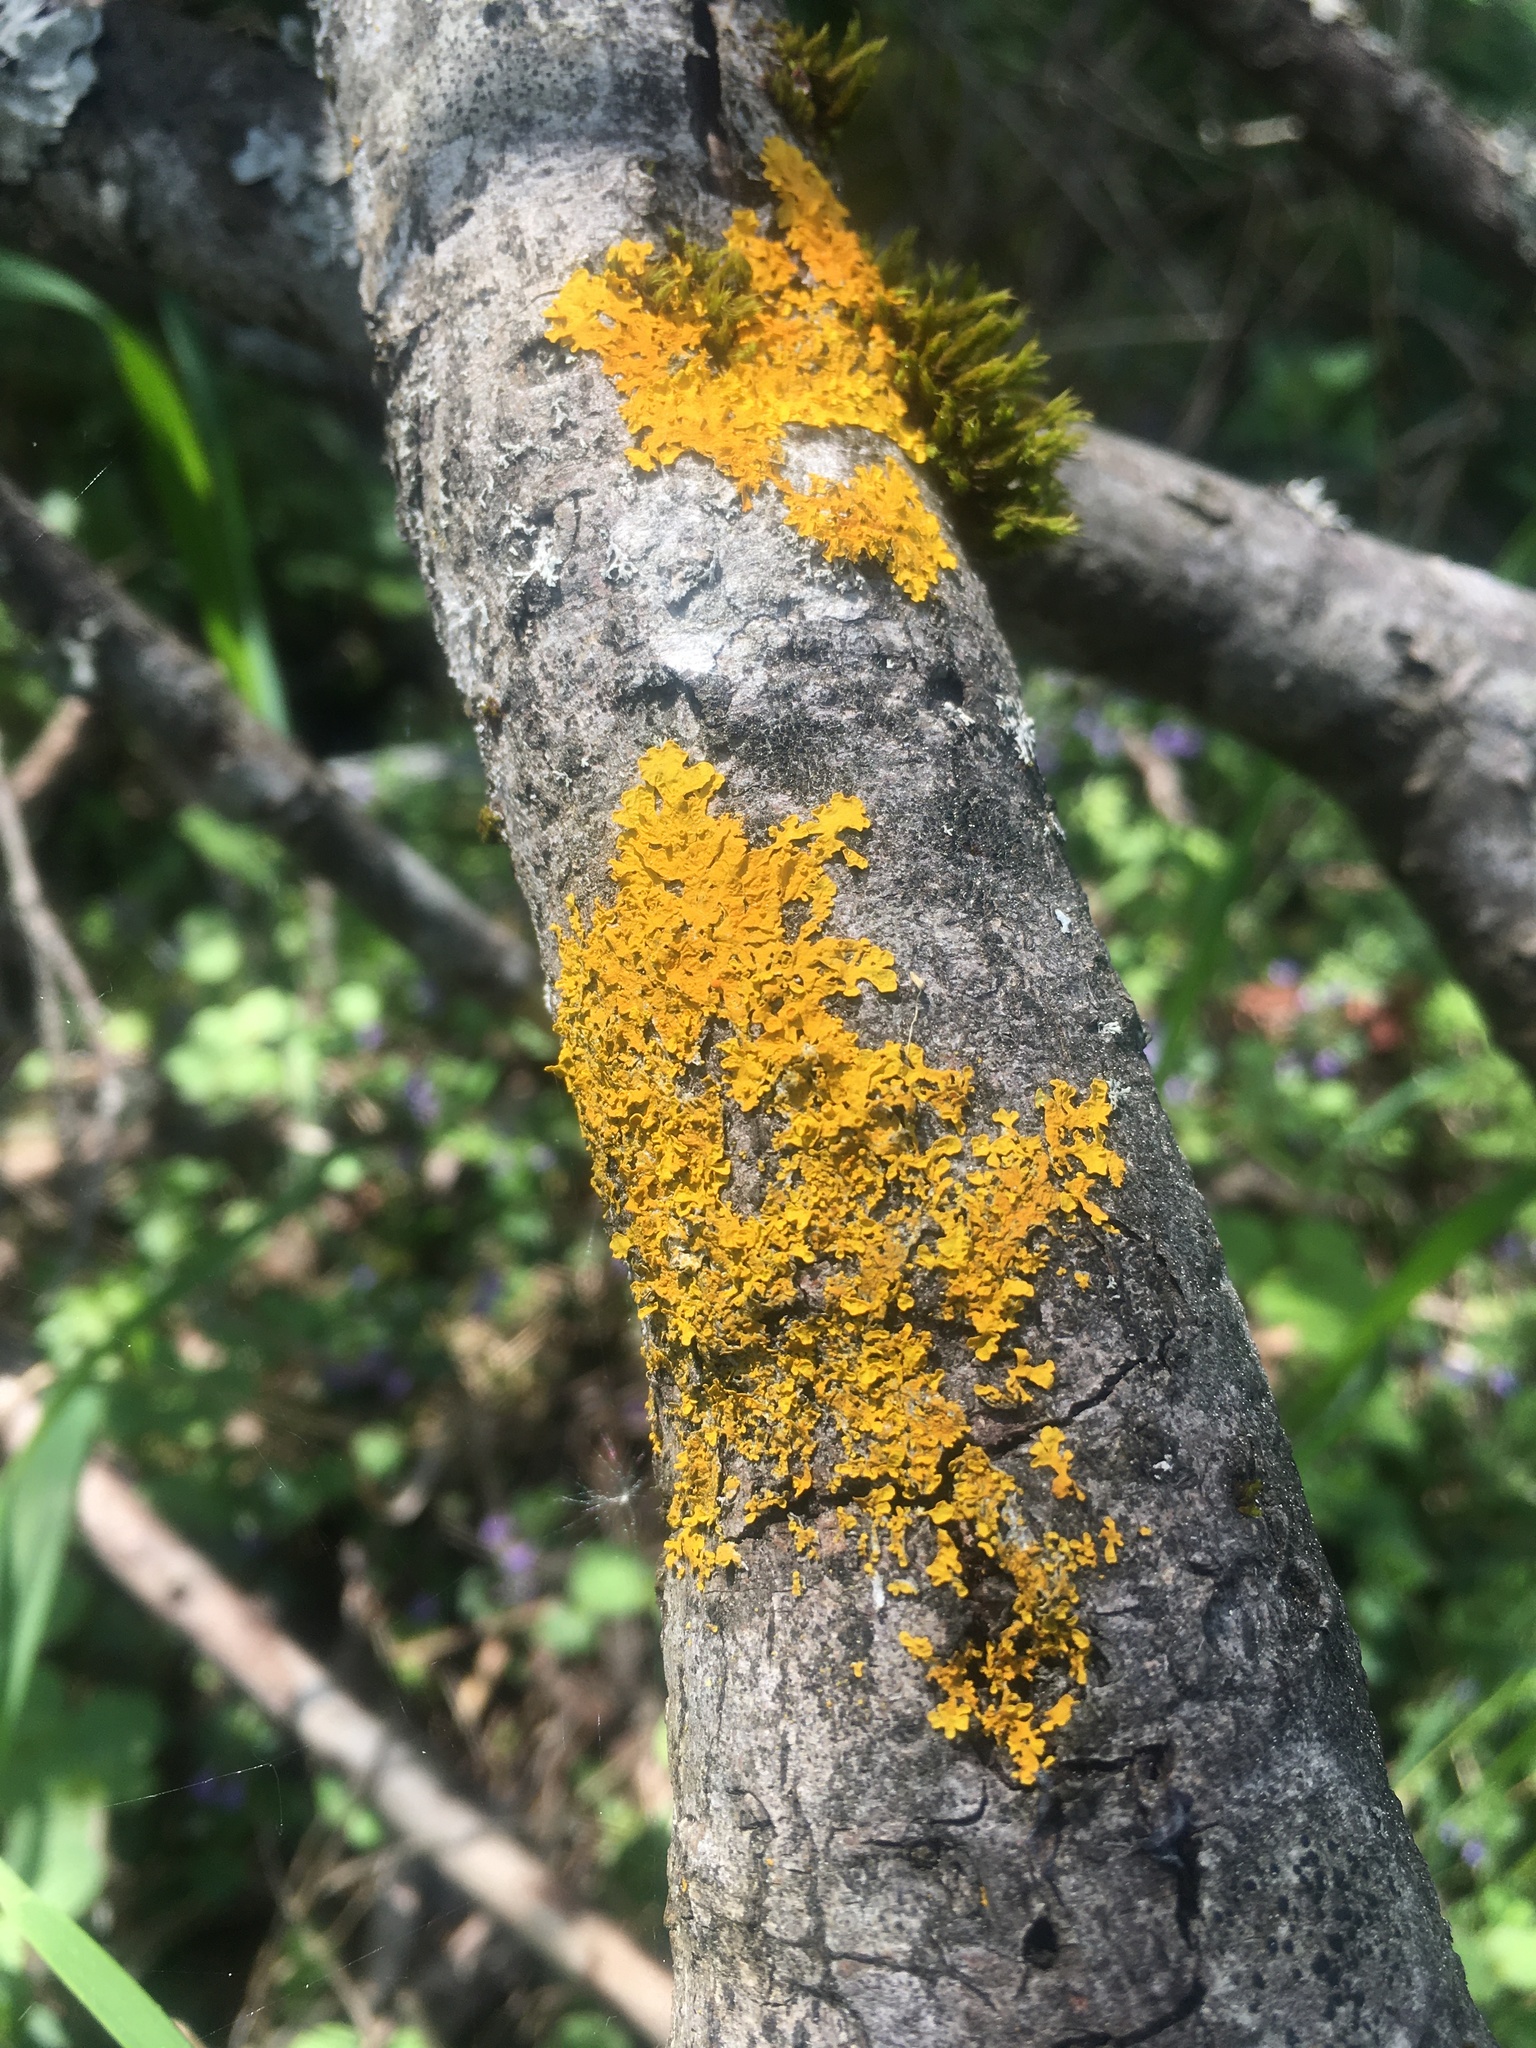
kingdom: Fungi
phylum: Ascomycota
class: Lecanoromycetes
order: Teloschistales
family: Teloschistaceae
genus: Xanthoria
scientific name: Xanthoria parietina
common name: Common orange lichen
